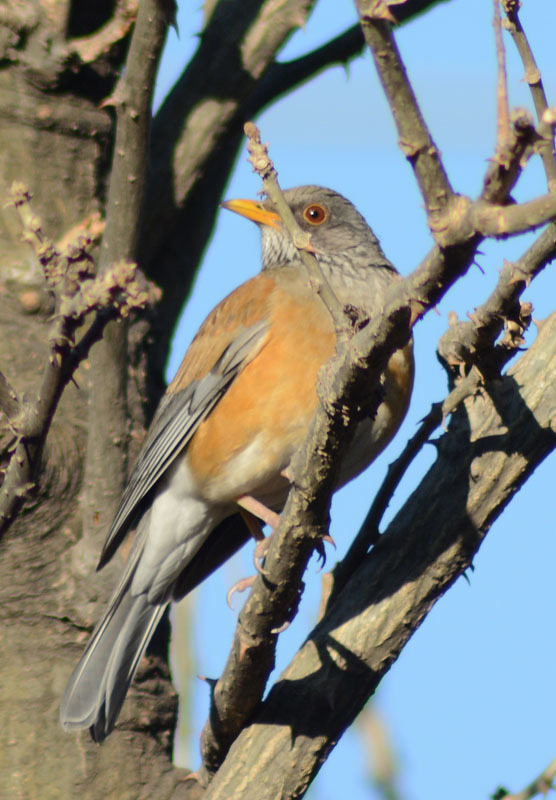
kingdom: Animalia
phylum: Chordata
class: Aves
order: Passeriformes
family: Turdidae
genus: Turdus
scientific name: Turdus rufopalliatus
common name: Rufous-backed robin
